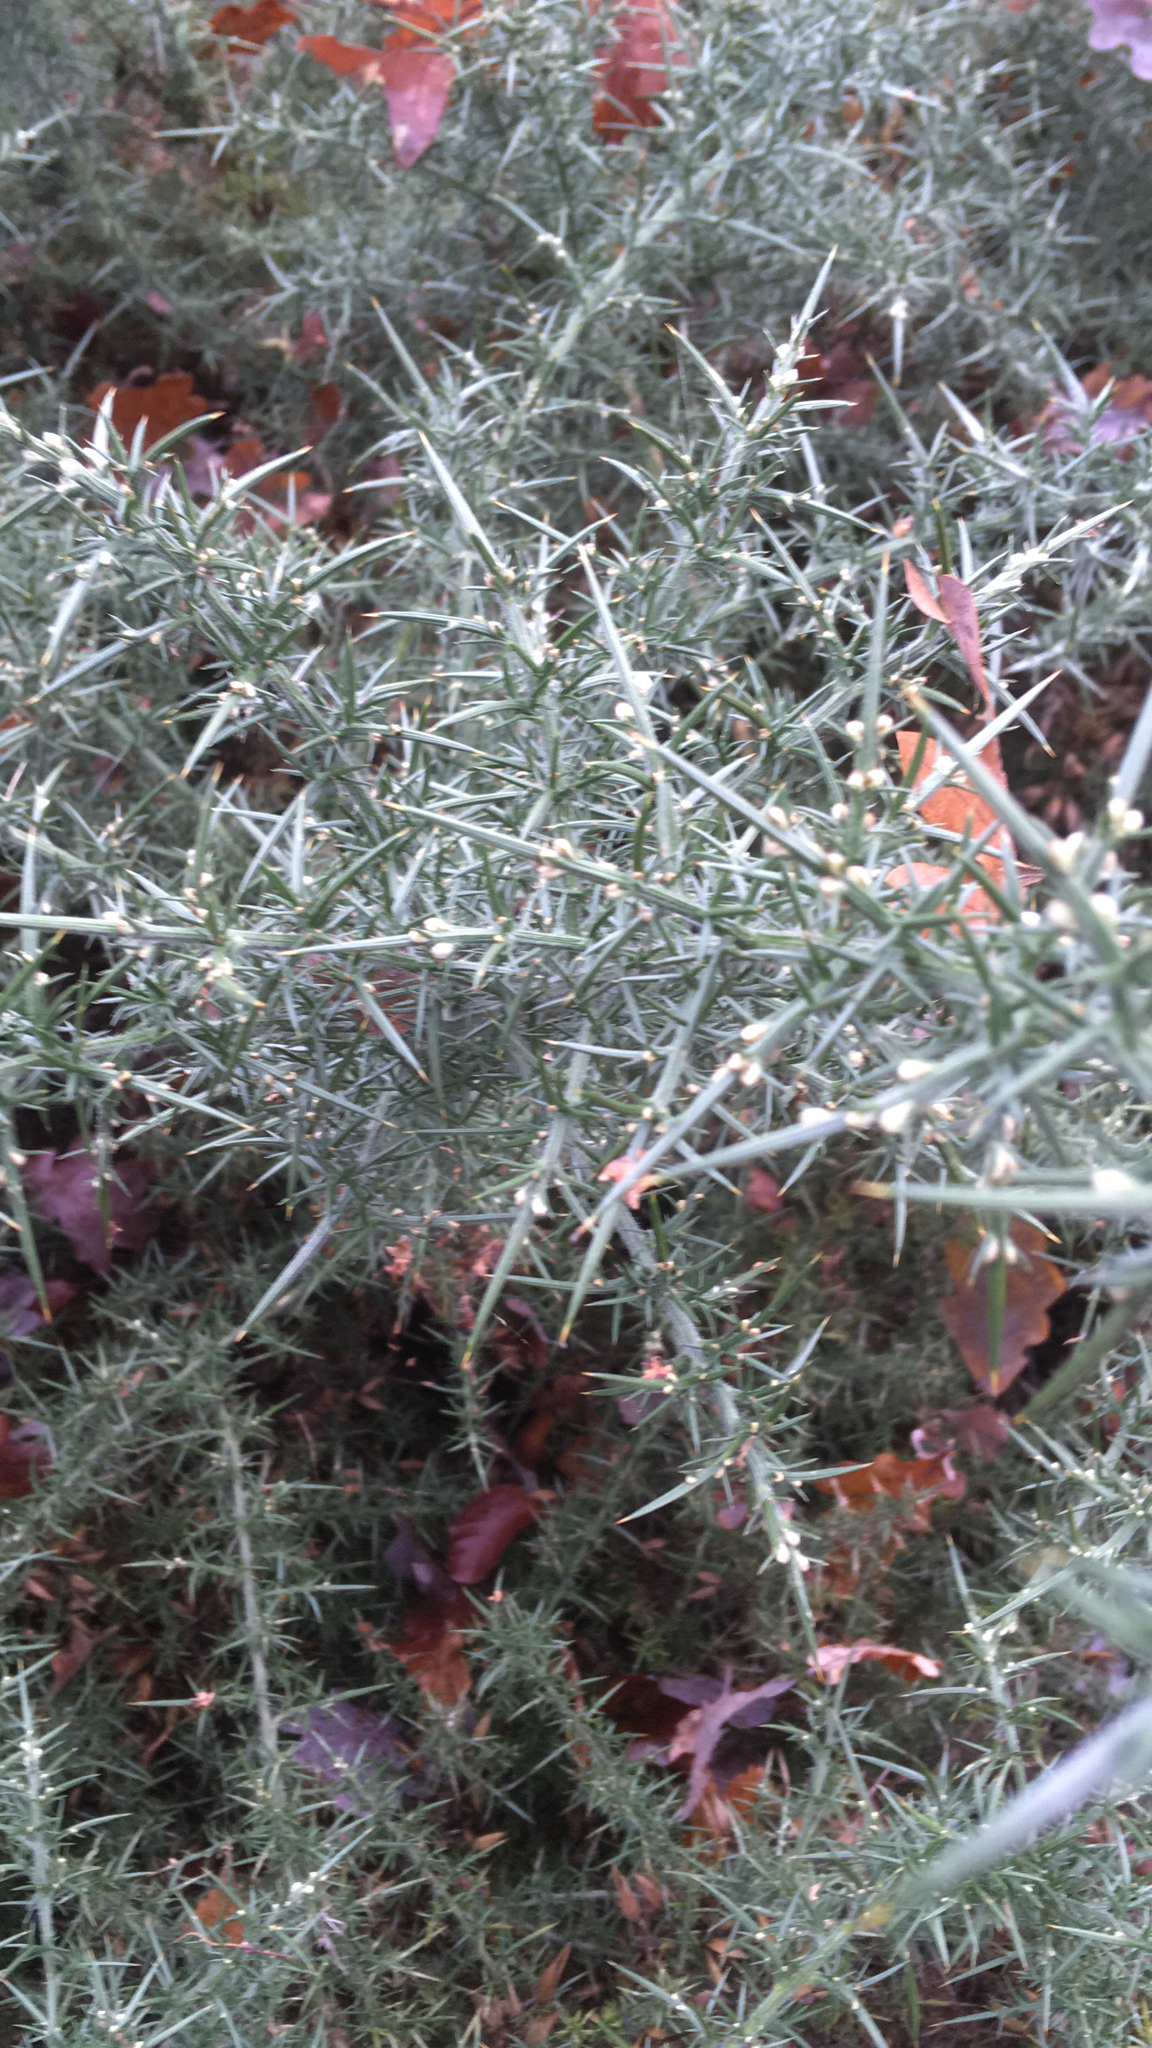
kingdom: Plantae
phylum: Tracheophyta
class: Magnoliopsida
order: Fabales
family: Fabaceae
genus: Ulex
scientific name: Ulex europaeus
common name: Common gorse
